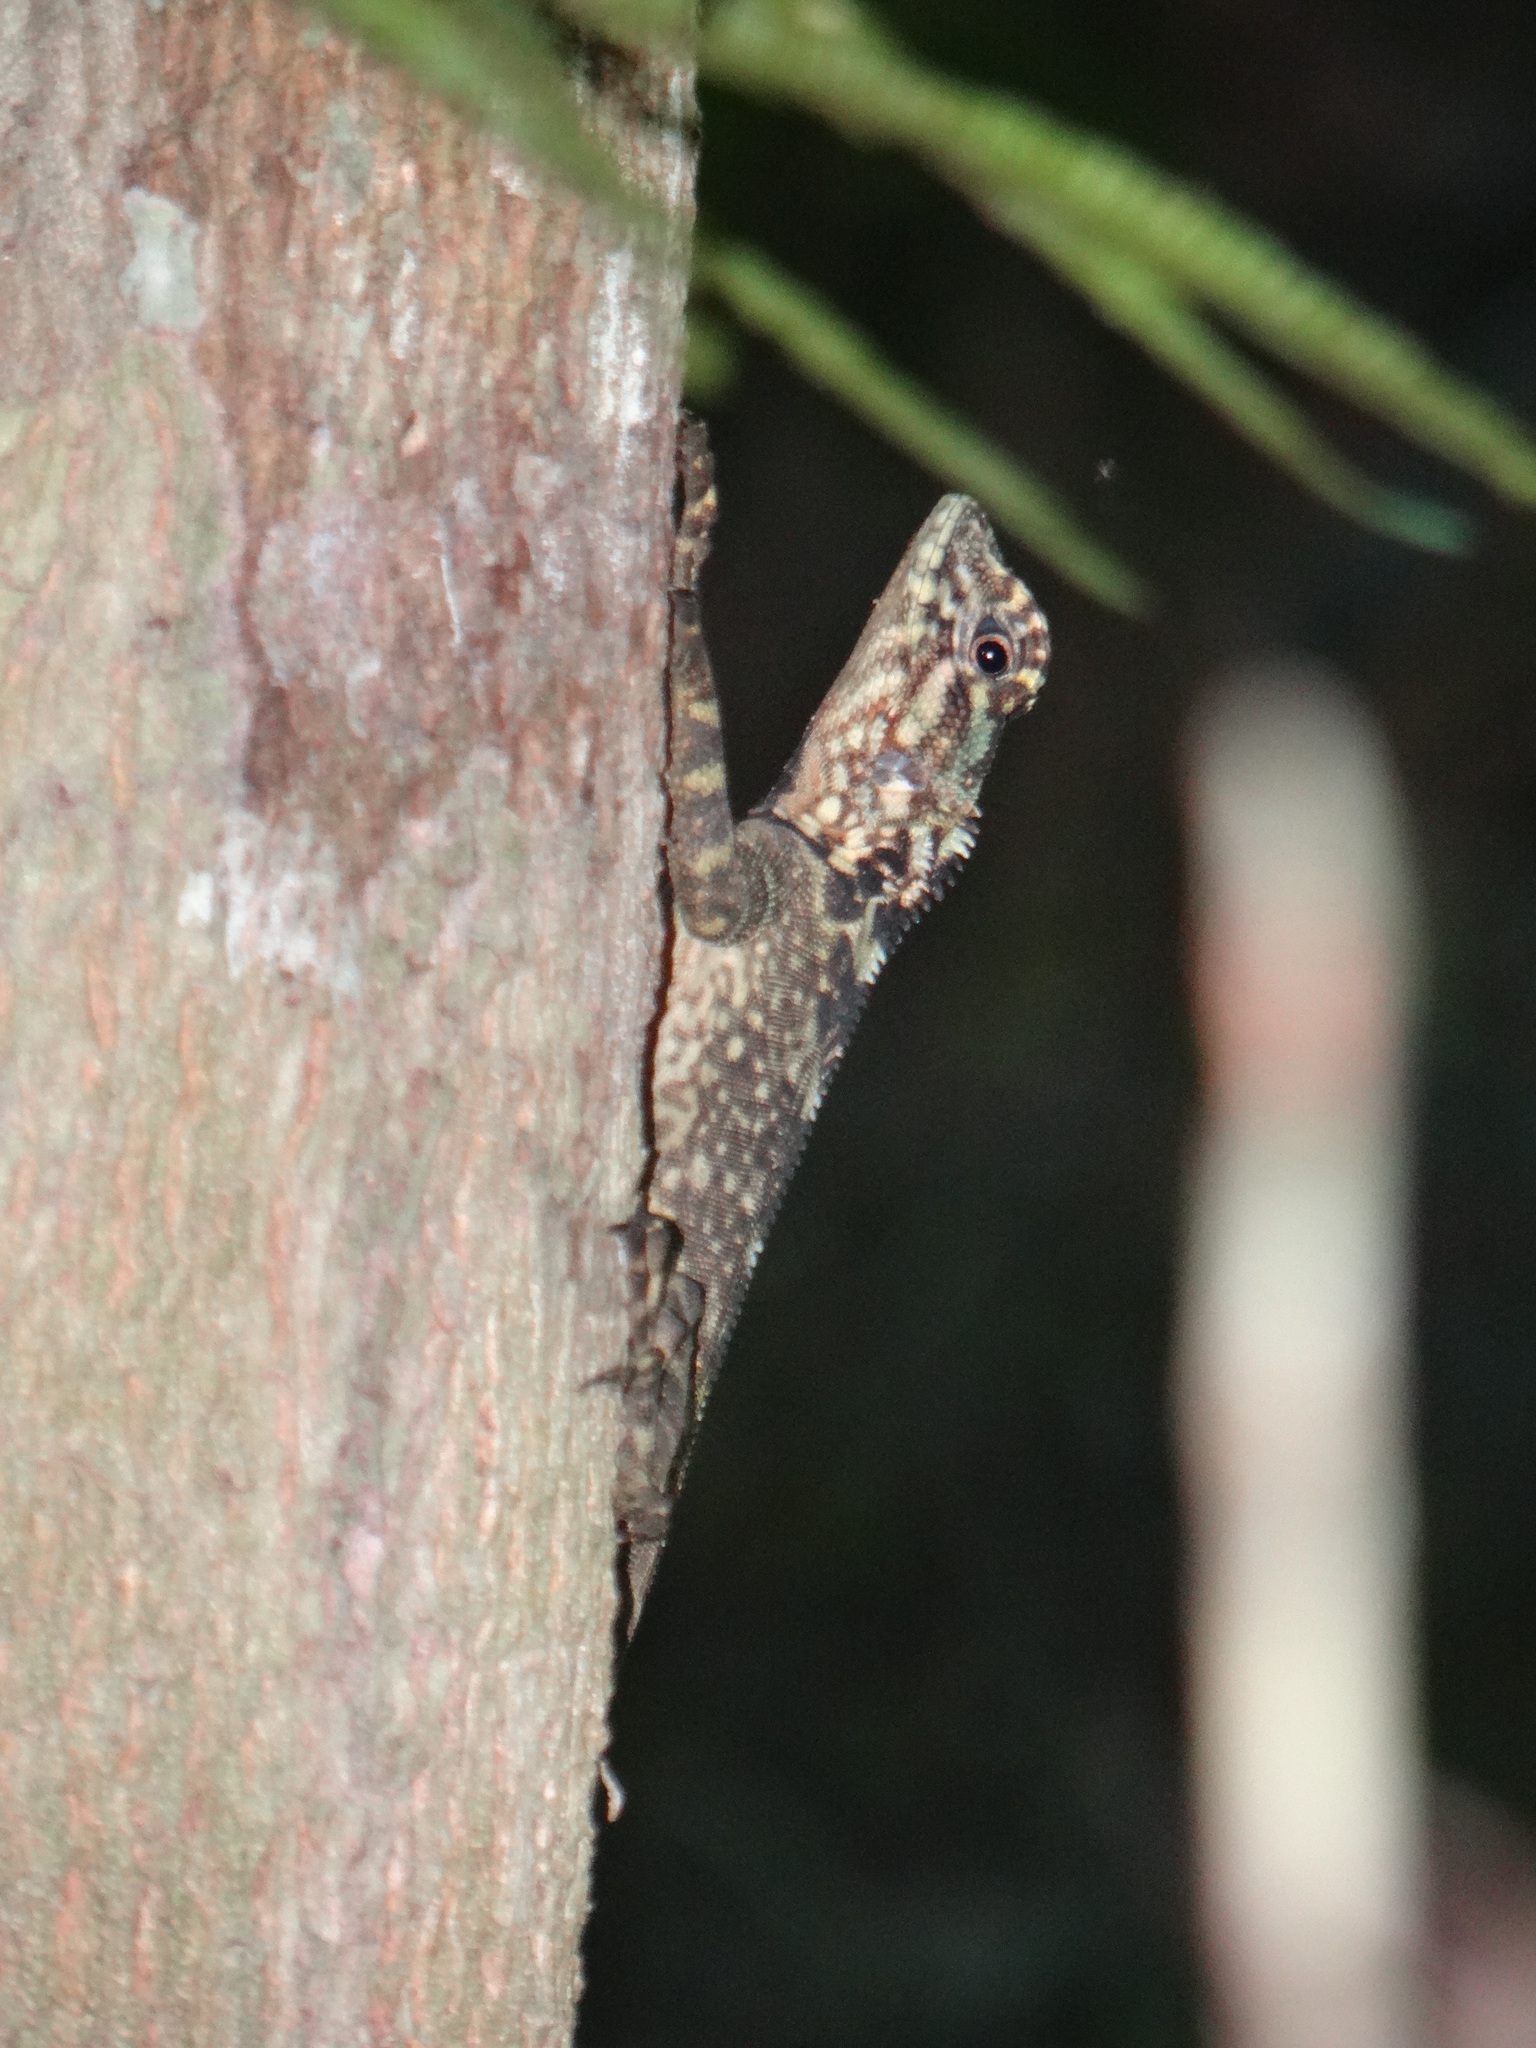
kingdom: Animalia
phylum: Chordata
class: Squamata
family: Tropiduridae
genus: Plica
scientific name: Plica plica
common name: Tree runner
